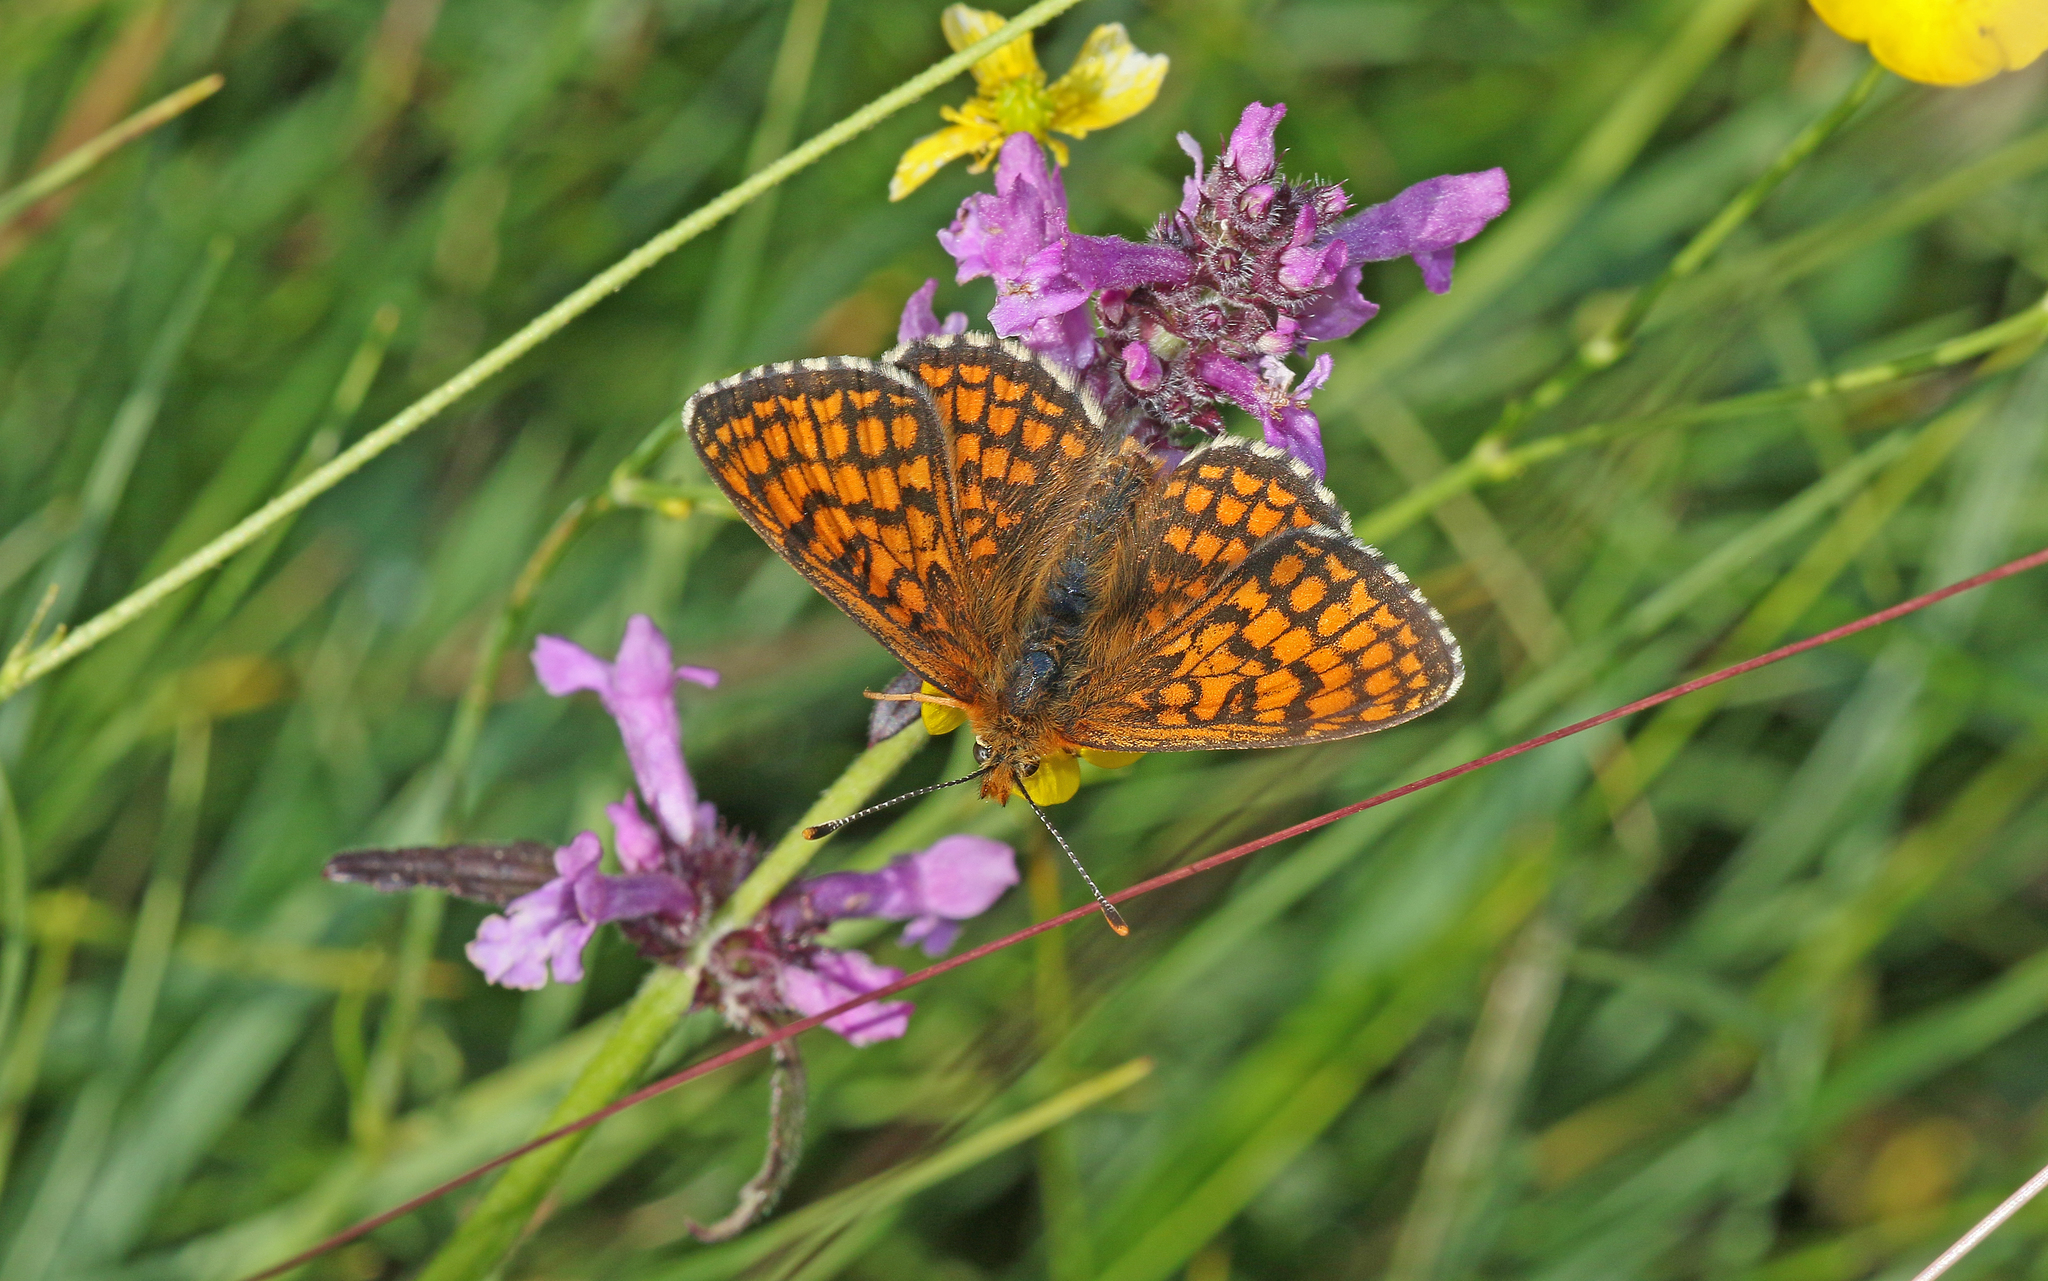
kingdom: Animalia
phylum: Arthropoda
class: Insecta
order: Lepidoptera
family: Nymphalidae
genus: Mellicta
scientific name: Mellicta parthenoides
